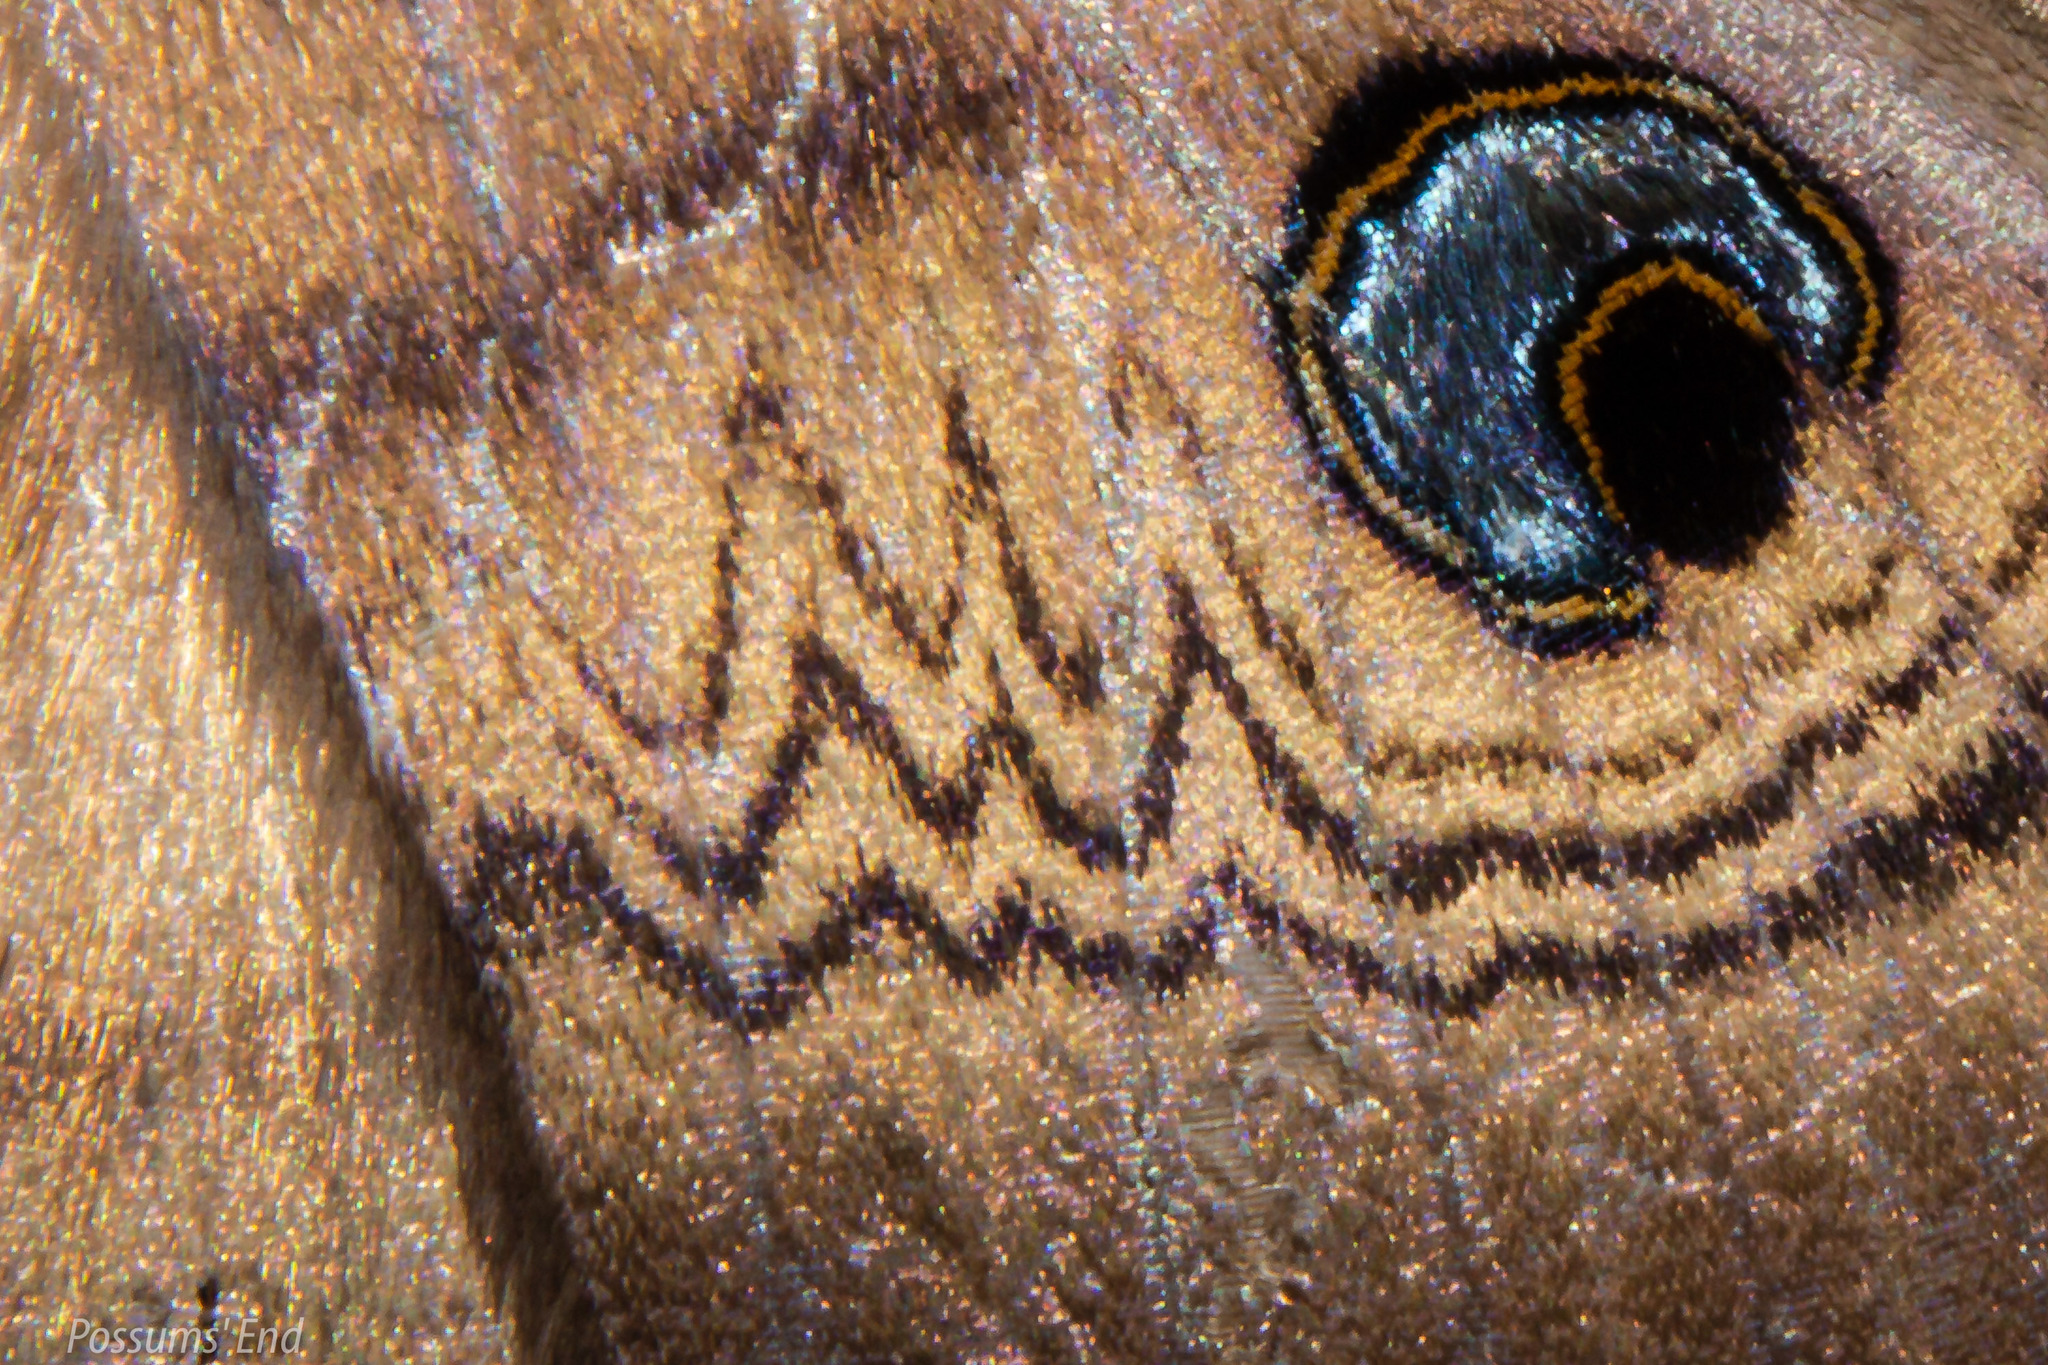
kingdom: Animalia
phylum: Arthropoda
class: Insecta
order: Lepidoptera
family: Erebidae
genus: Dasypodia
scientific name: Dasypodia selenophora
